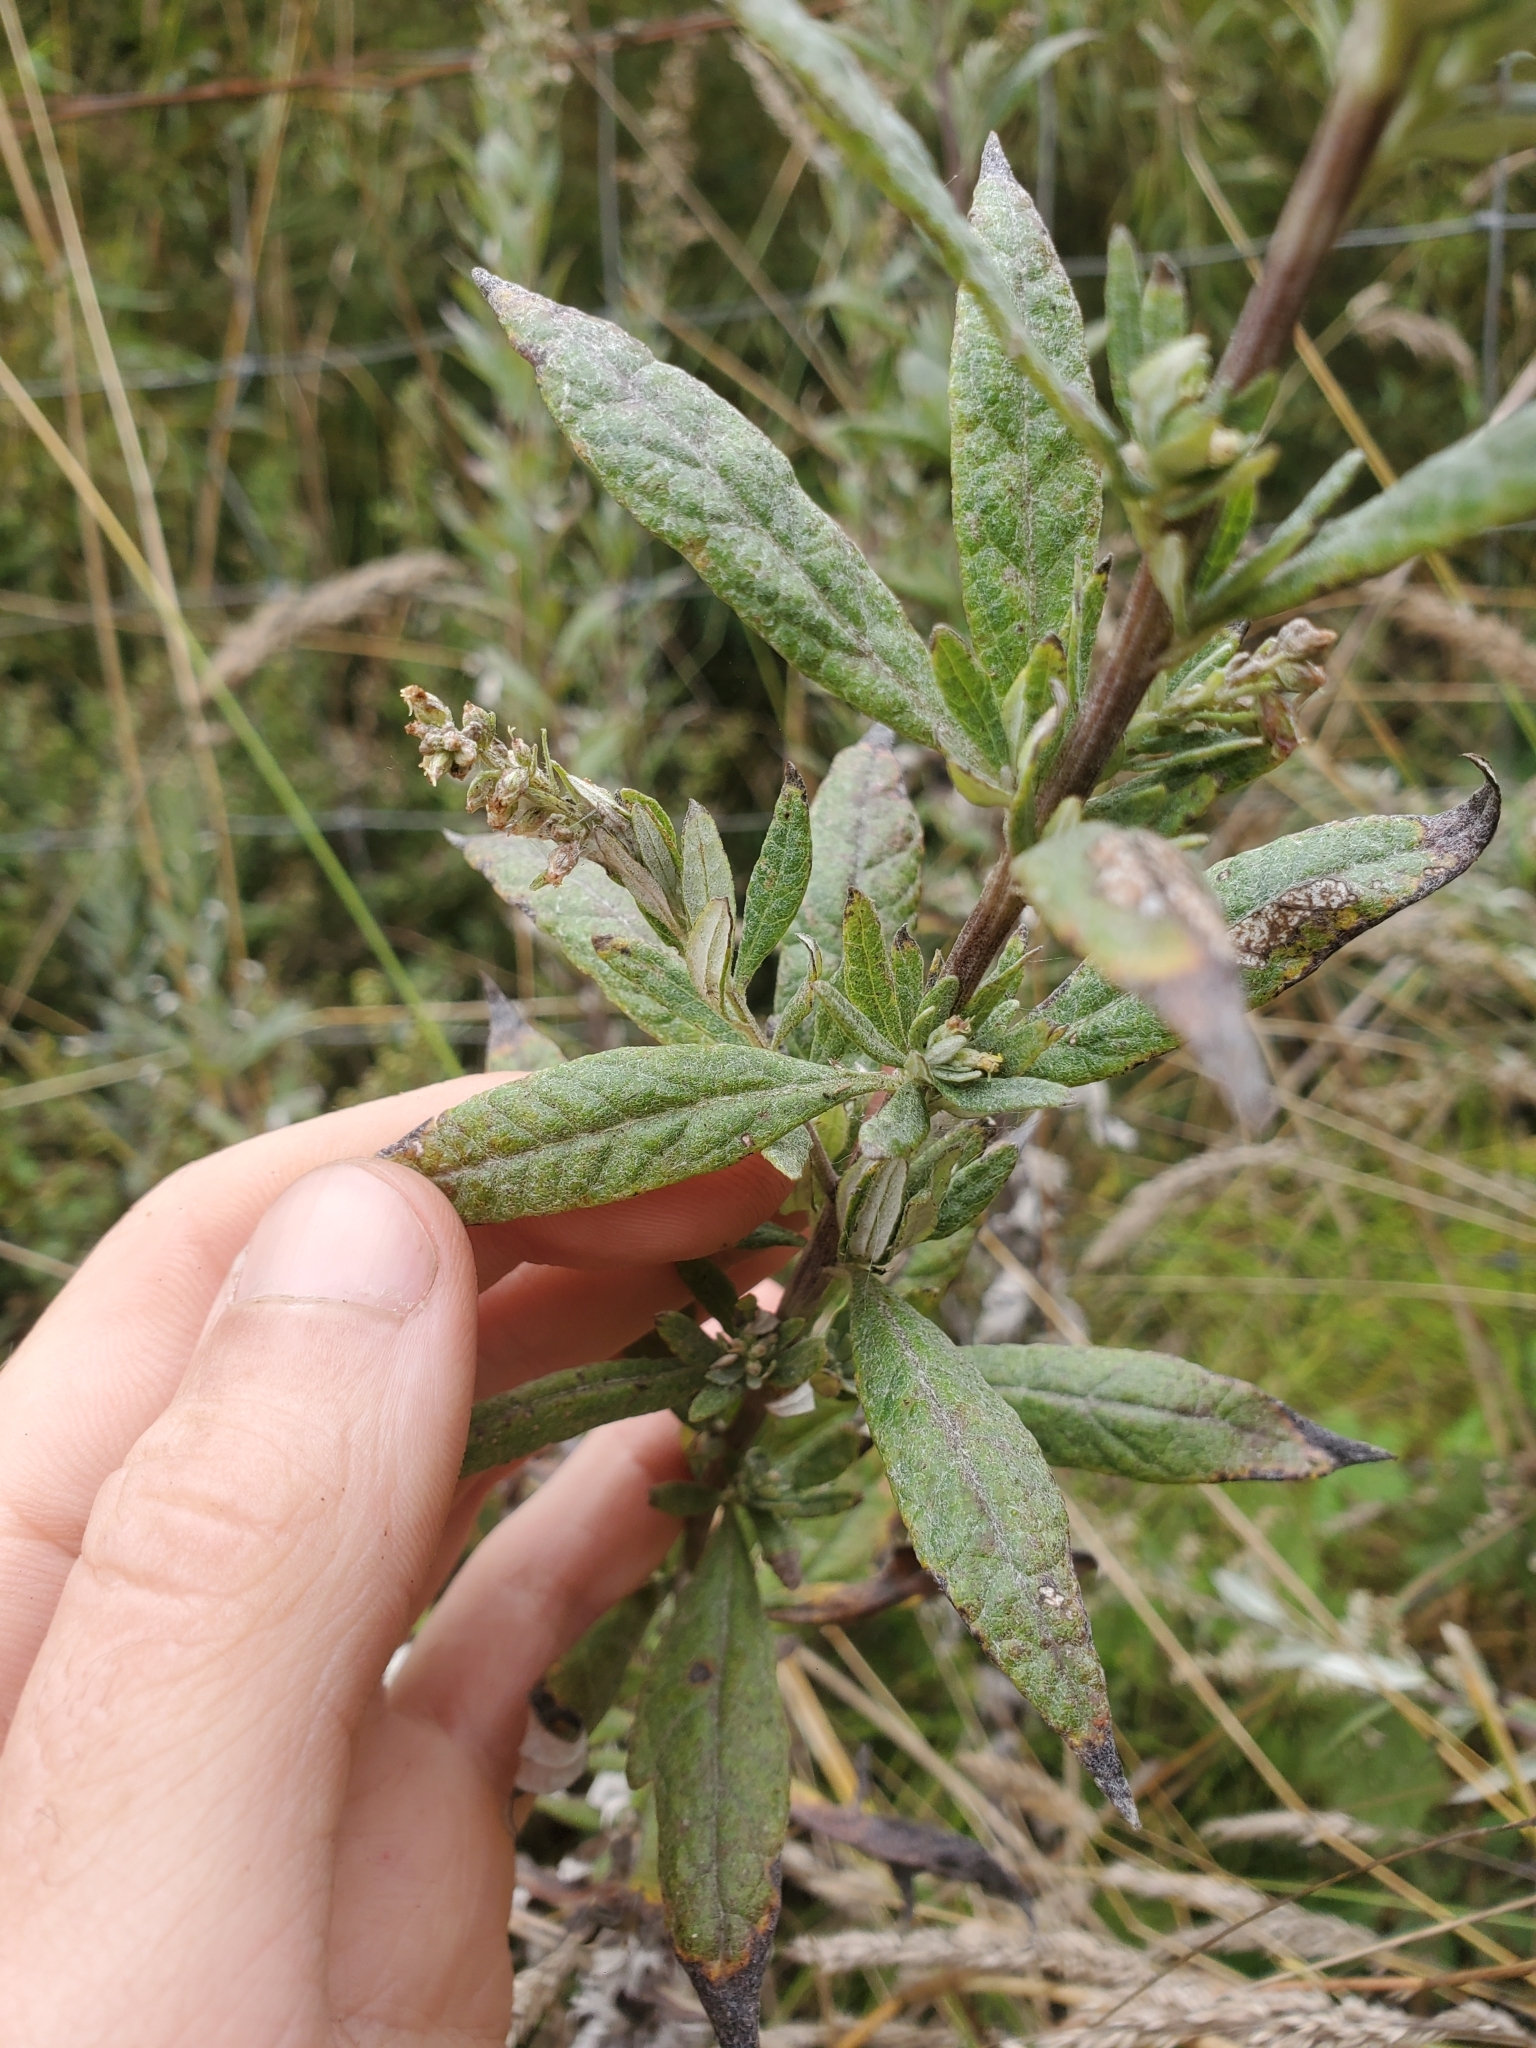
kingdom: Plantae
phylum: Tracheophyta
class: Magnoliopsida
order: Asterales
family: Asteraceae
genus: Artemisia
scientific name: Artemisia douglasiana
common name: Northwest mugwort
